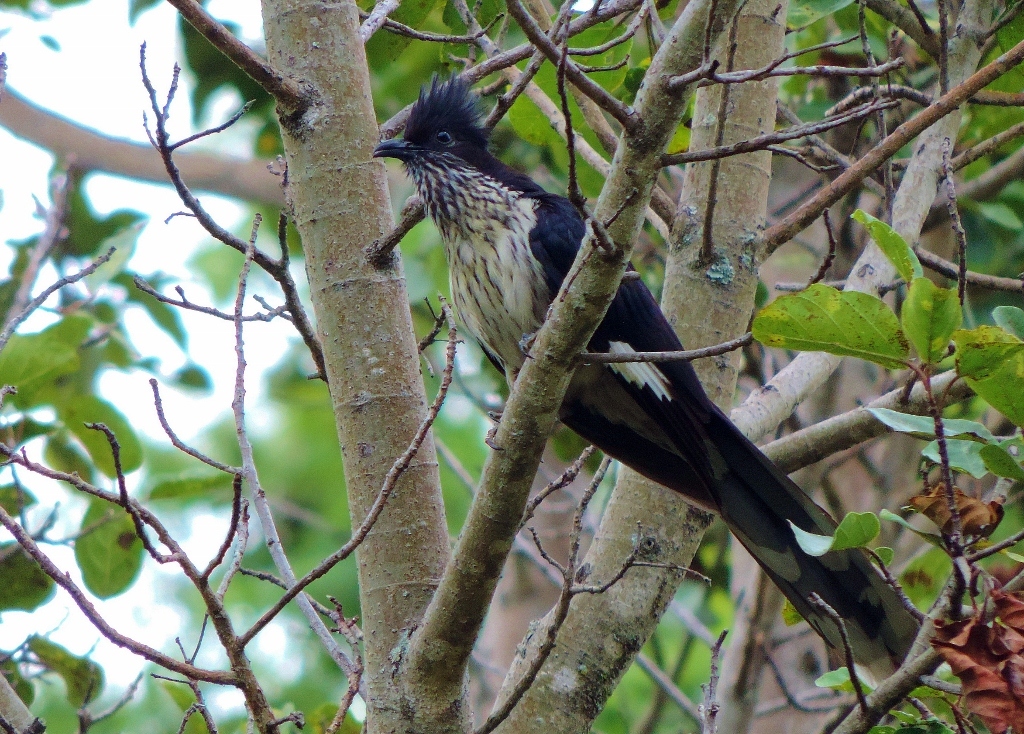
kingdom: Animalia
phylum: Chordata
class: Aves
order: Cuculiformes
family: Cuculidae
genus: Clamator
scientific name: Clamator levaillantii
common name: Levaillant's cuckoo
